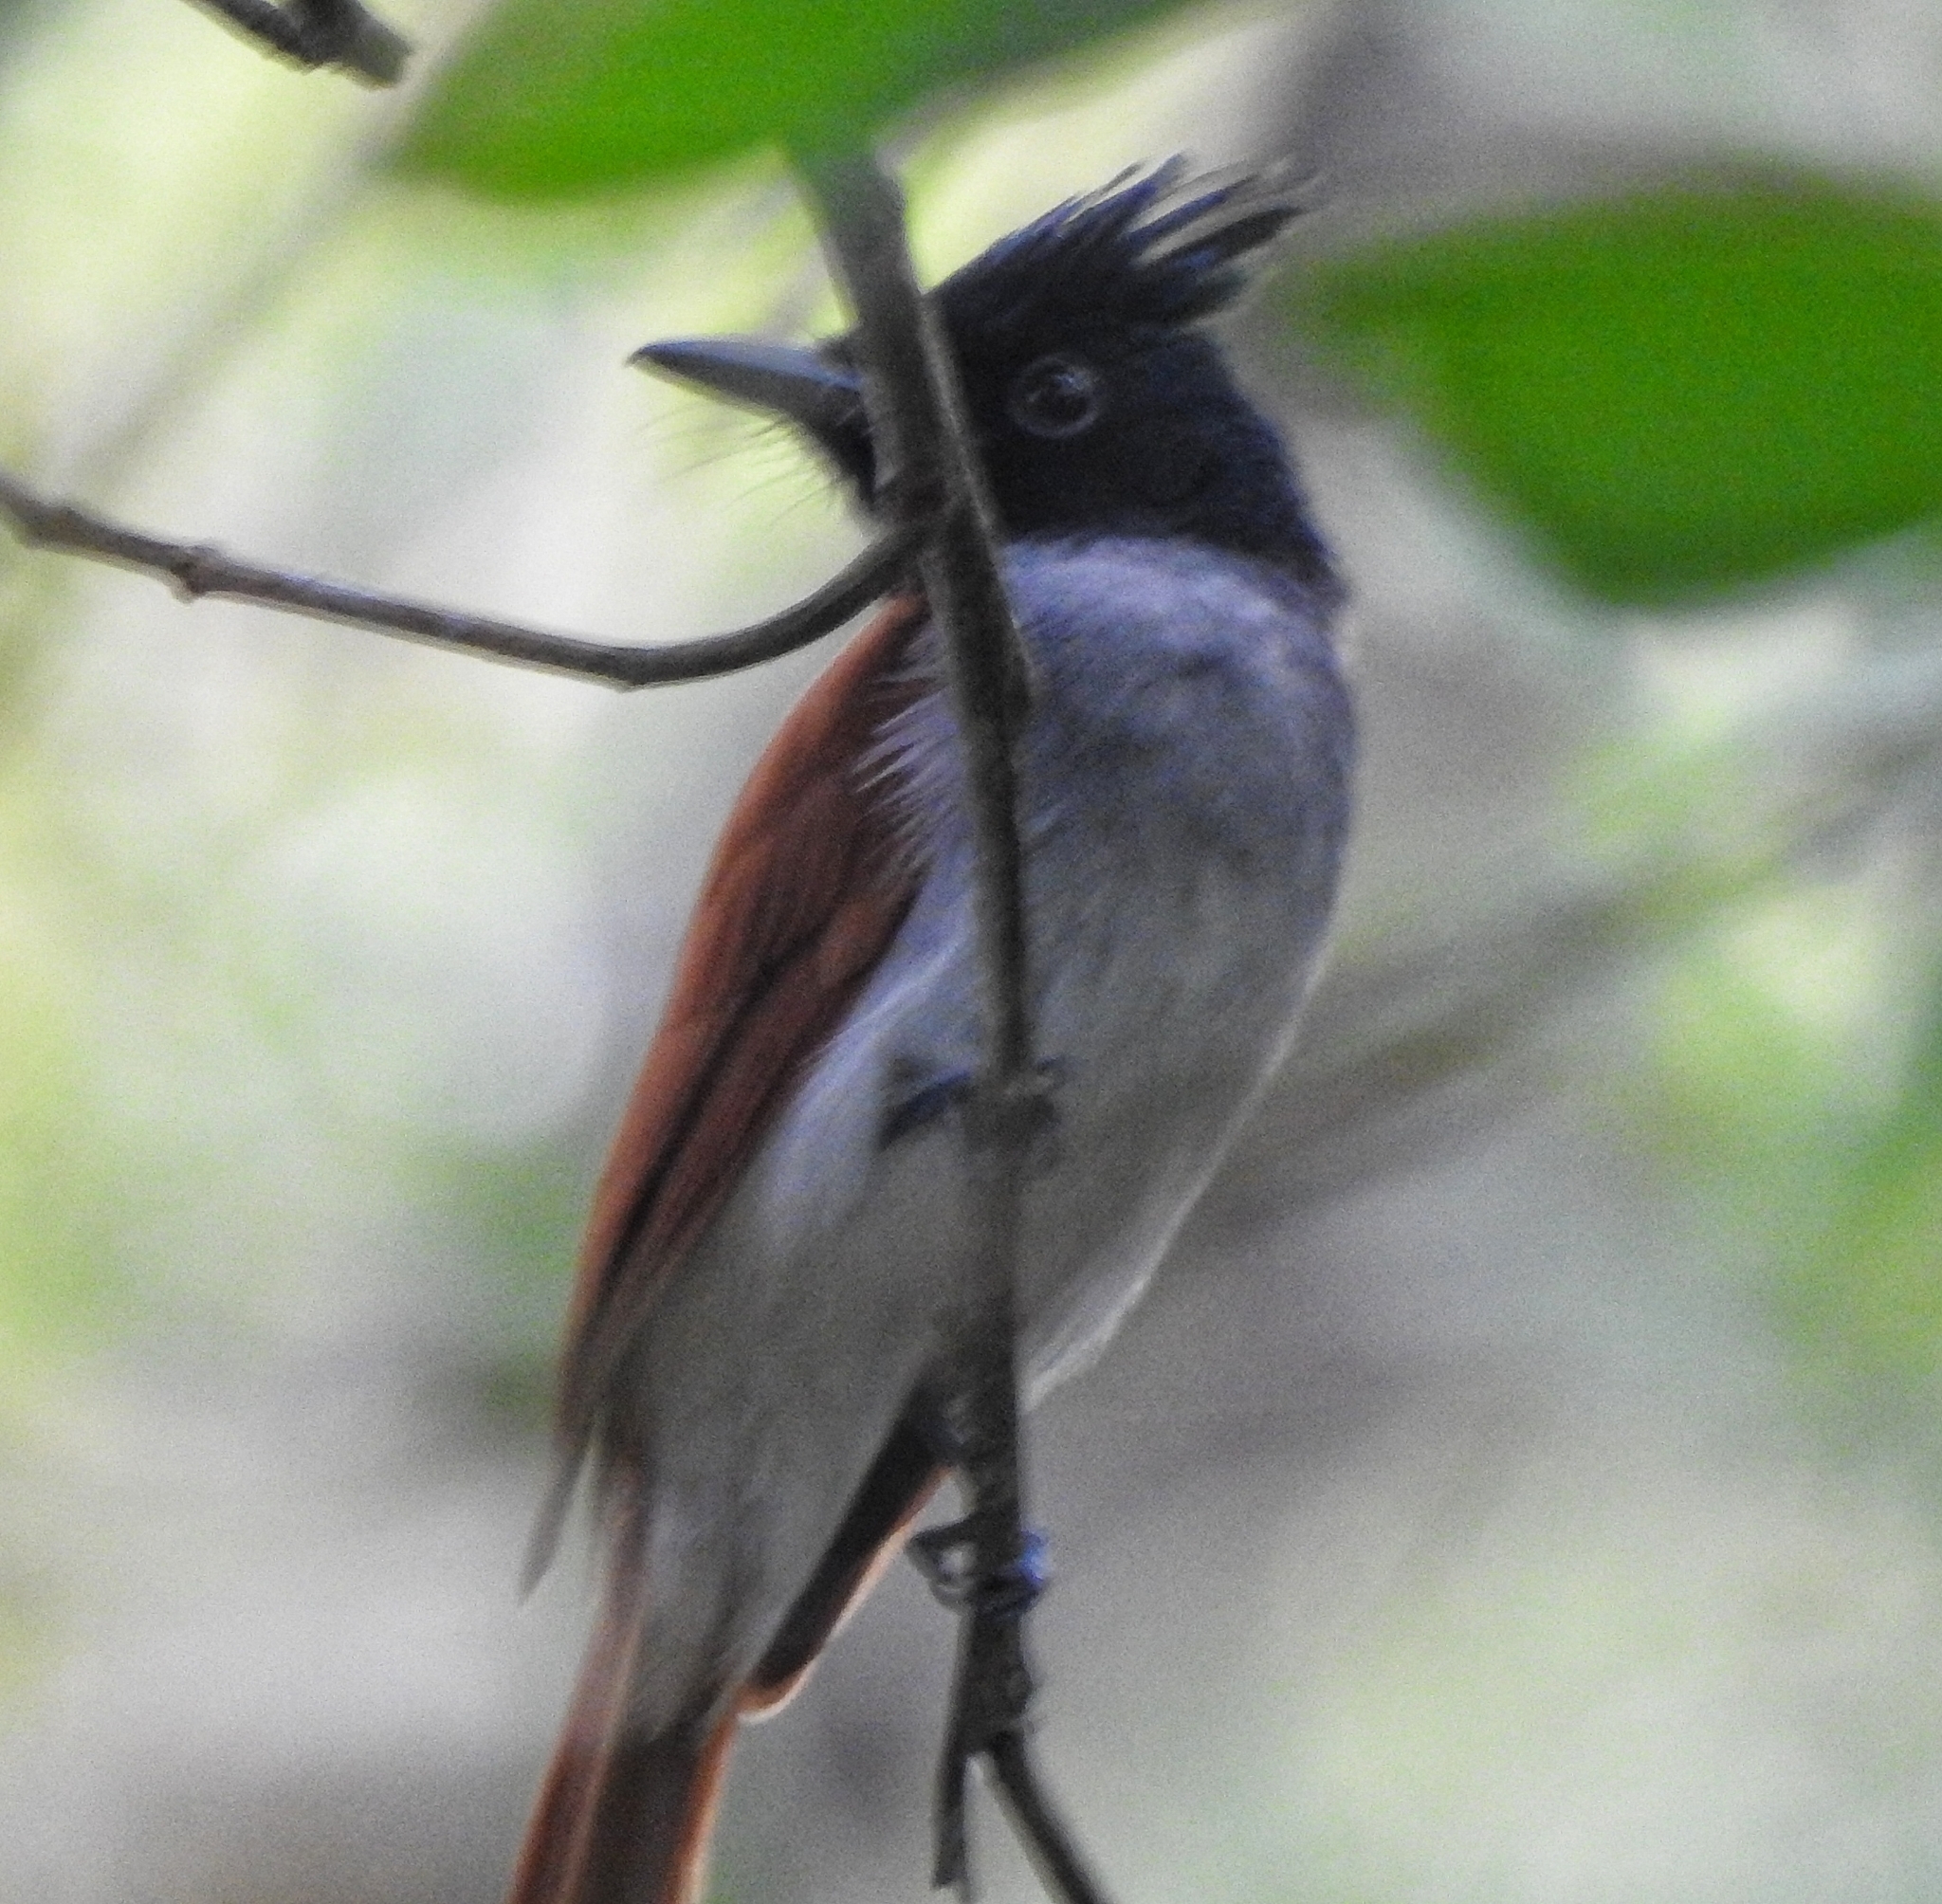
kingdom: Animalia
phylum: Chordata
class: Aves
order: Passeriformes
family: Monarchidae
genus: Terpsiphone
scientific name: Terpsiphone paradisi
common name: Indian paradise flycatcher
